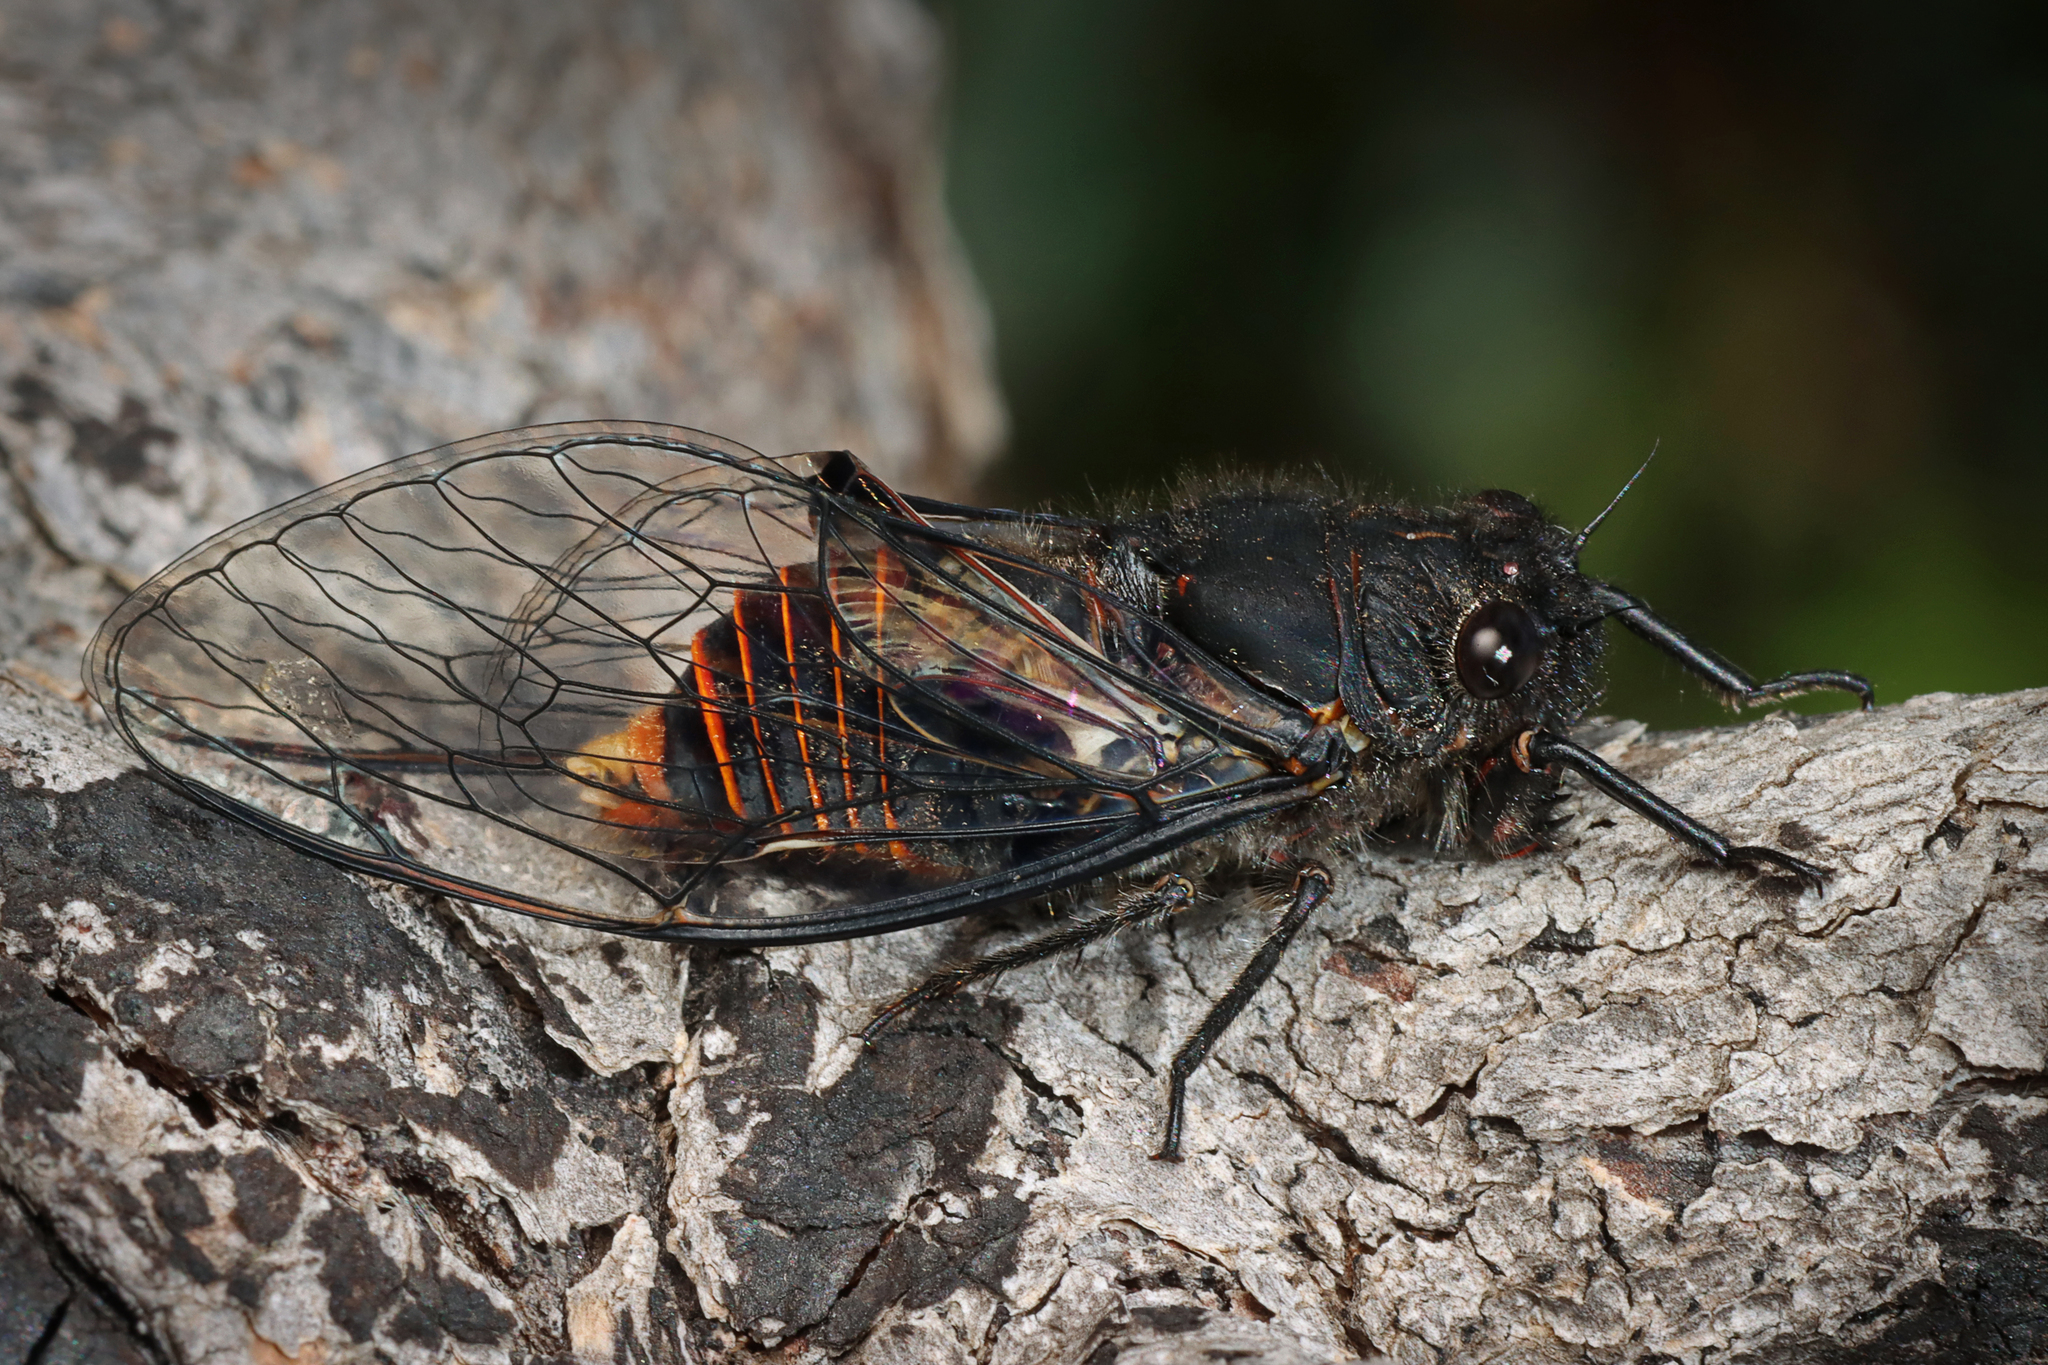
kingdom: Animalia
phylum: Arthropoda
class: Insecta
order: Hemiptera
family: Cicadidae
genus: Pauropsalta
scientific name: Pauropsalta mneme
